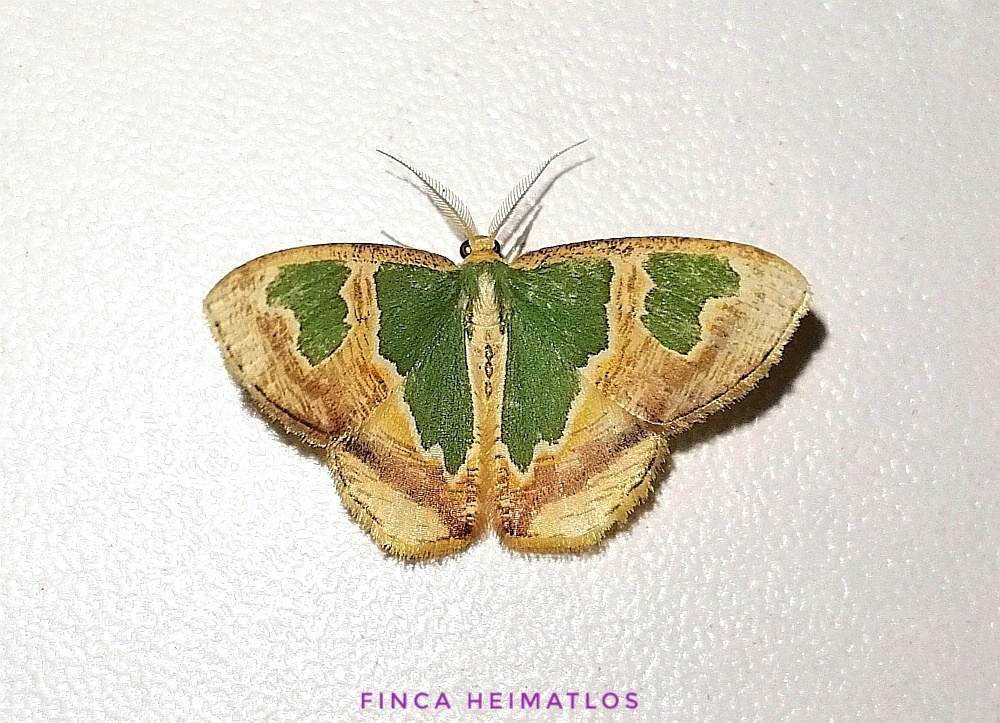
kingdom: Animalia
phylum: Arthropoda
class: Insecta
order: Lepidoptera
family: Geometridae
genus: Oospila
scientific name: Oospila venezuelata
